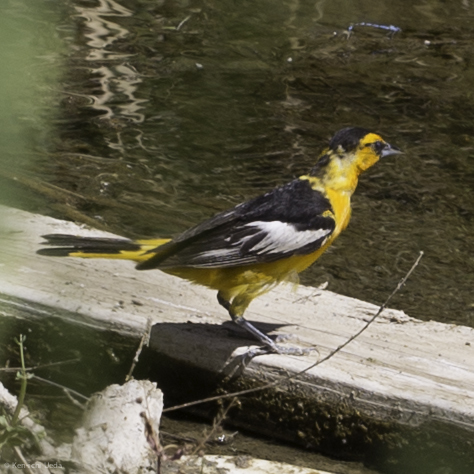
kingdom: Animalia
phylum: Chordata
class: Aves
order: Passeriformes
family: Icteridae
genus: Icterus
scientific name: Icterus bullockii
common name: Bullock's oriole
